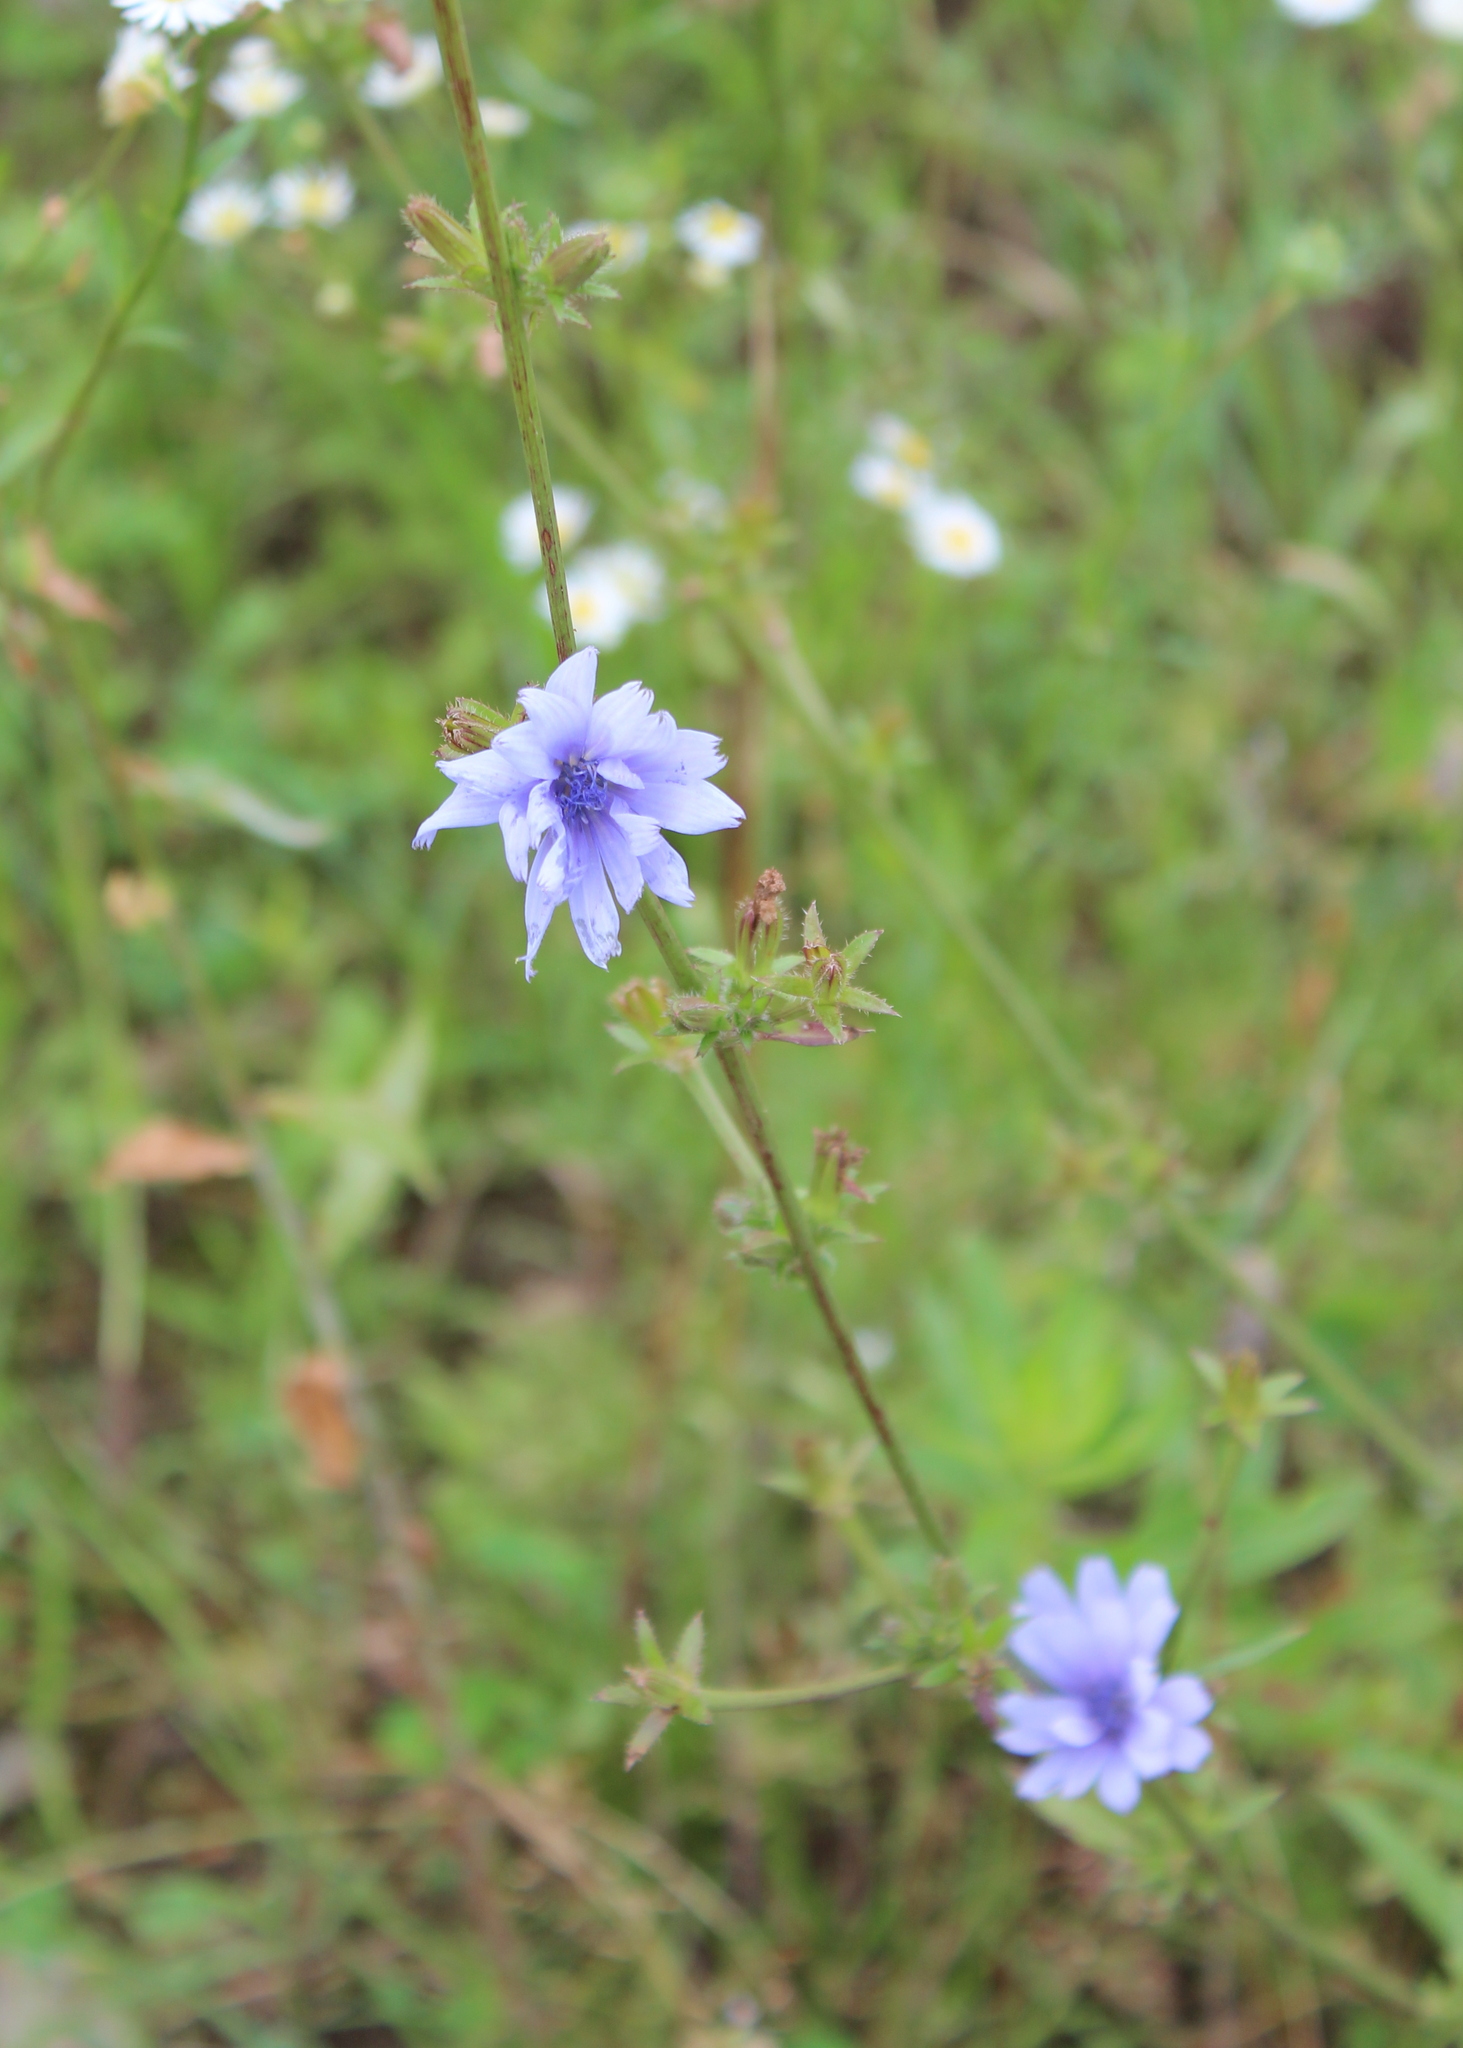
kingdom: Plantae
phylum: Tracheophyta
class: Magnoliopsida
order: Asterales
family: Asteraceae
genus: Cichorium
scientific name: Cichorium intybus
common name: Chicory
